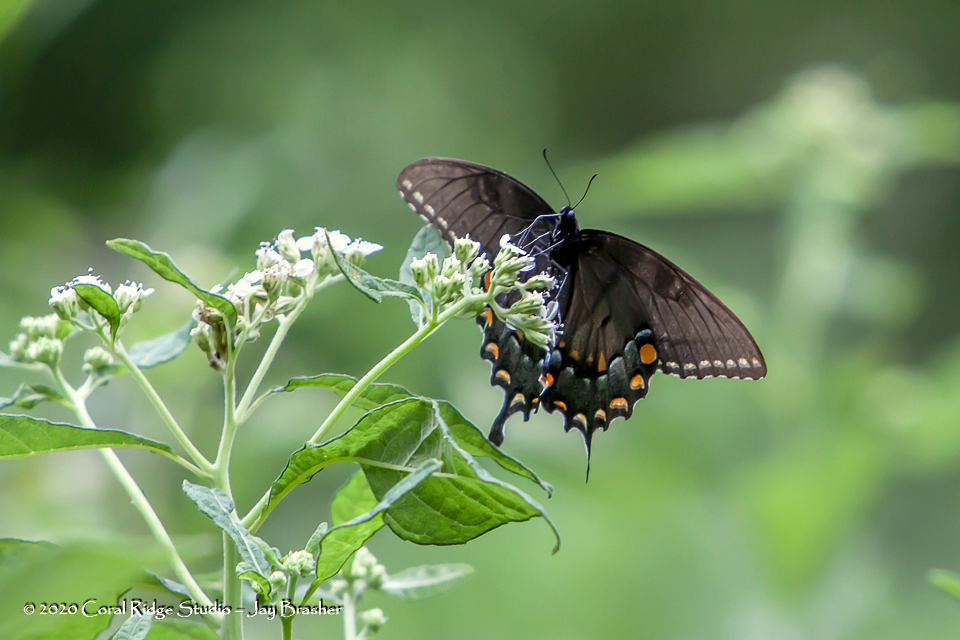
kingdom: Animalia
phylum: Arthropoda
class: Insecta
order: Lepidoptera
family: Papilionidae
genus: Papilio
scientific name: Papilio glaucus
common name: Tiger swallowtail
